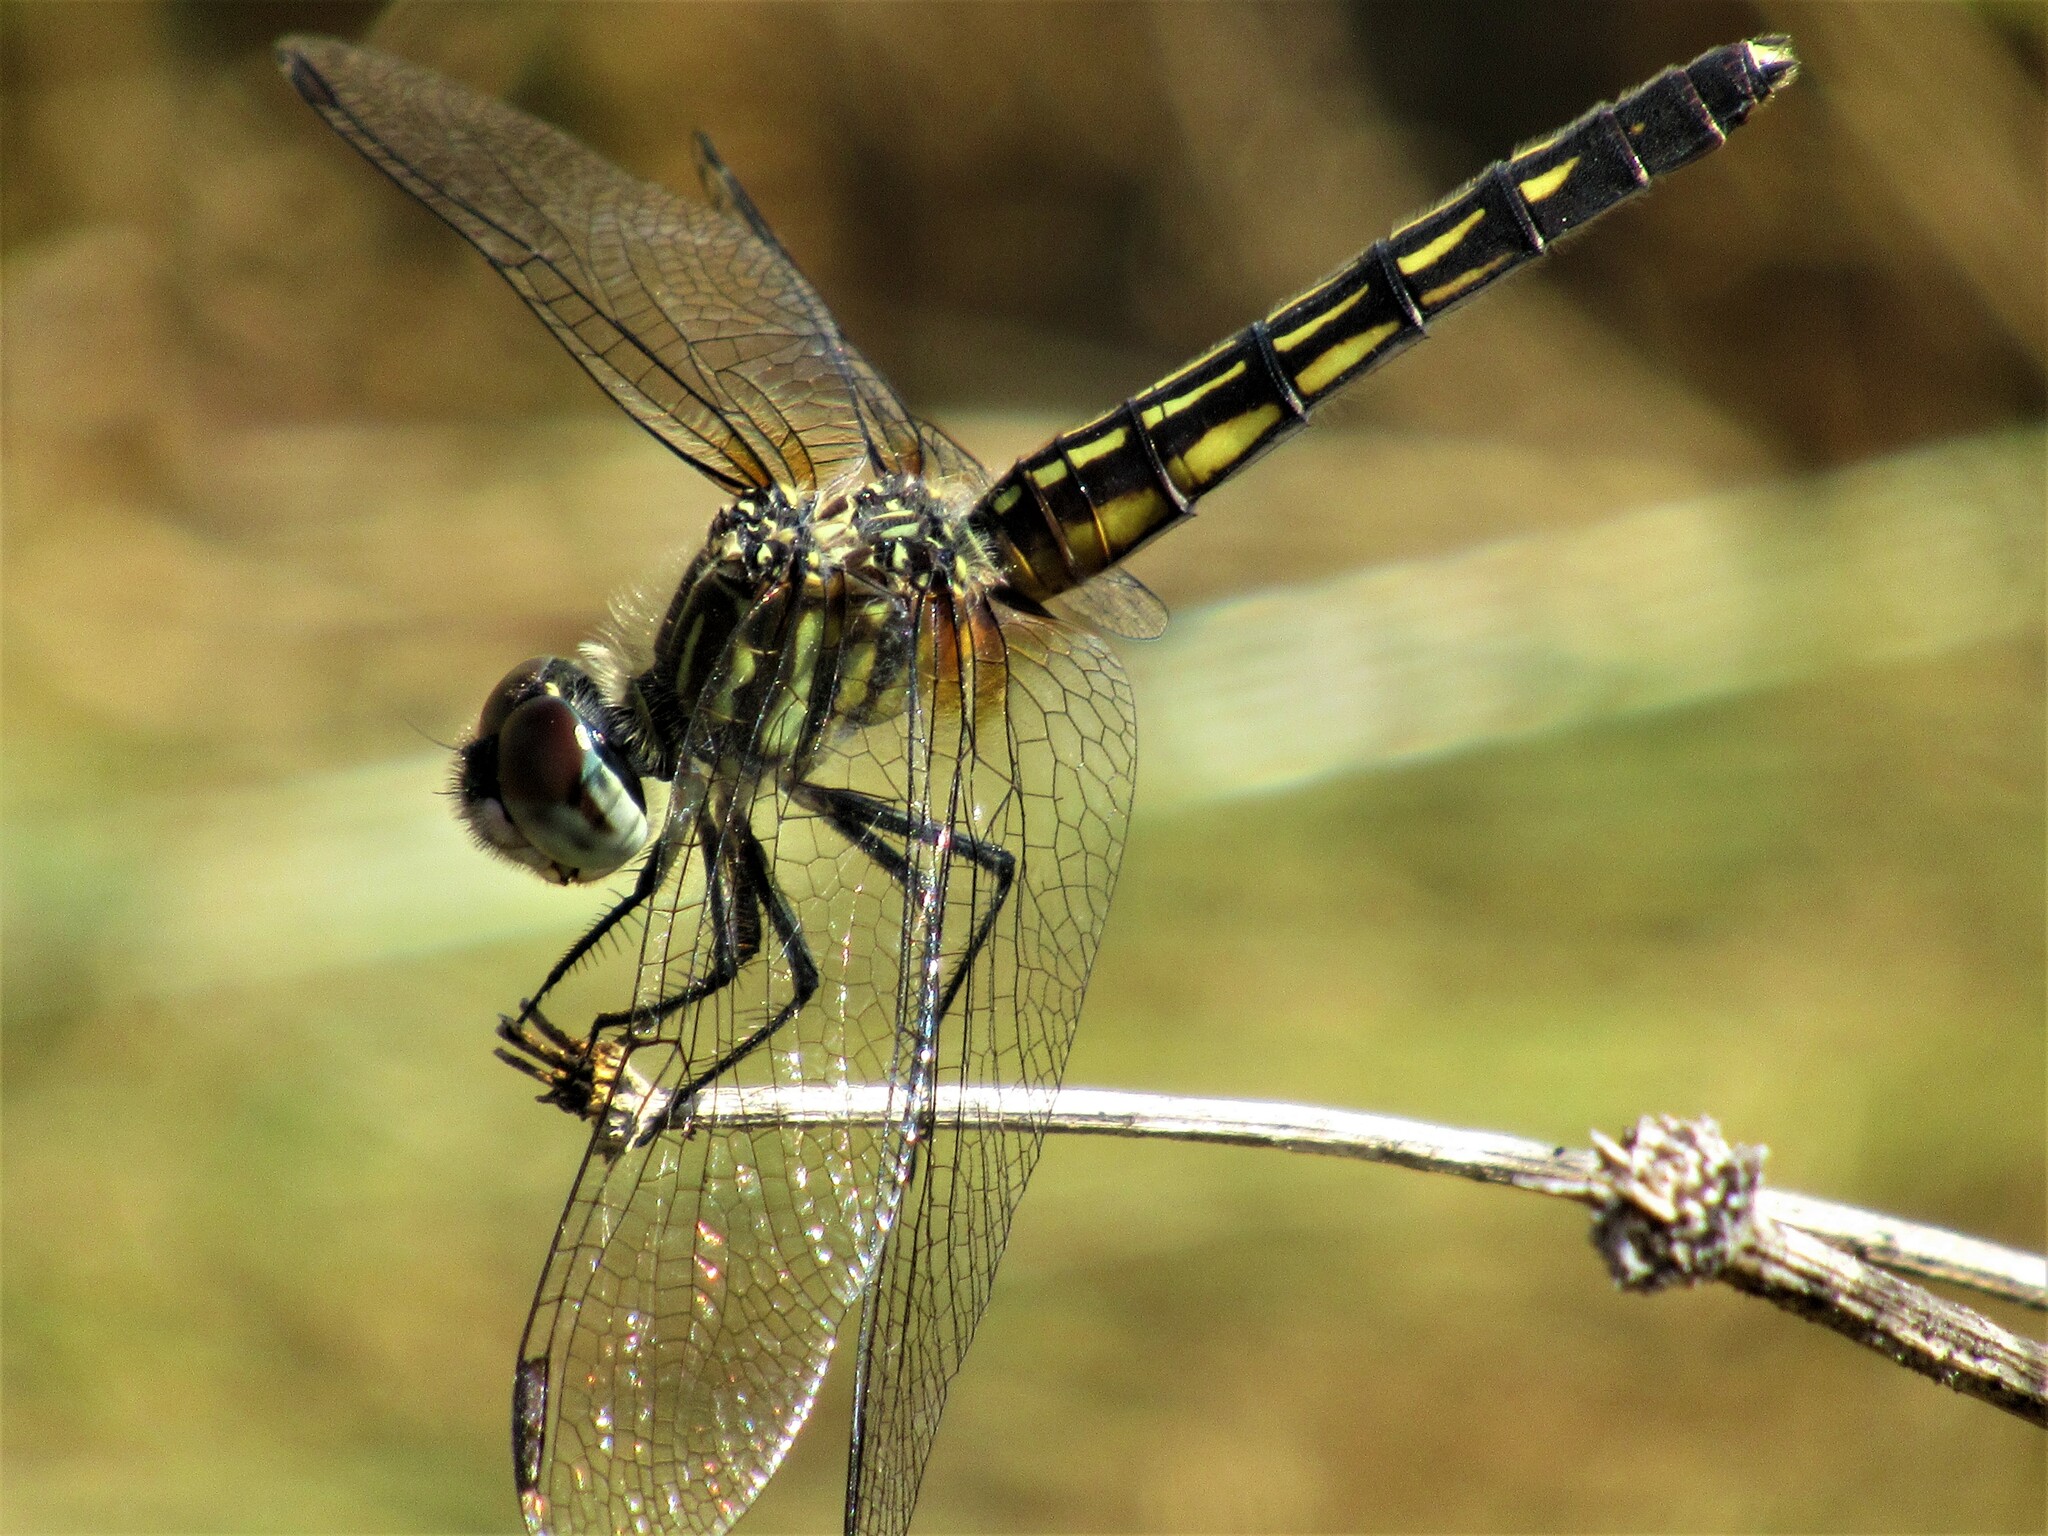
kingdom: Animalia
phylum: Arthropoda
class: Insecta
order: Odonata
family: Libellulidae
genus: Pachydiplax
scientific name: Pachydiplax longipennis
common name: Blue dasher
